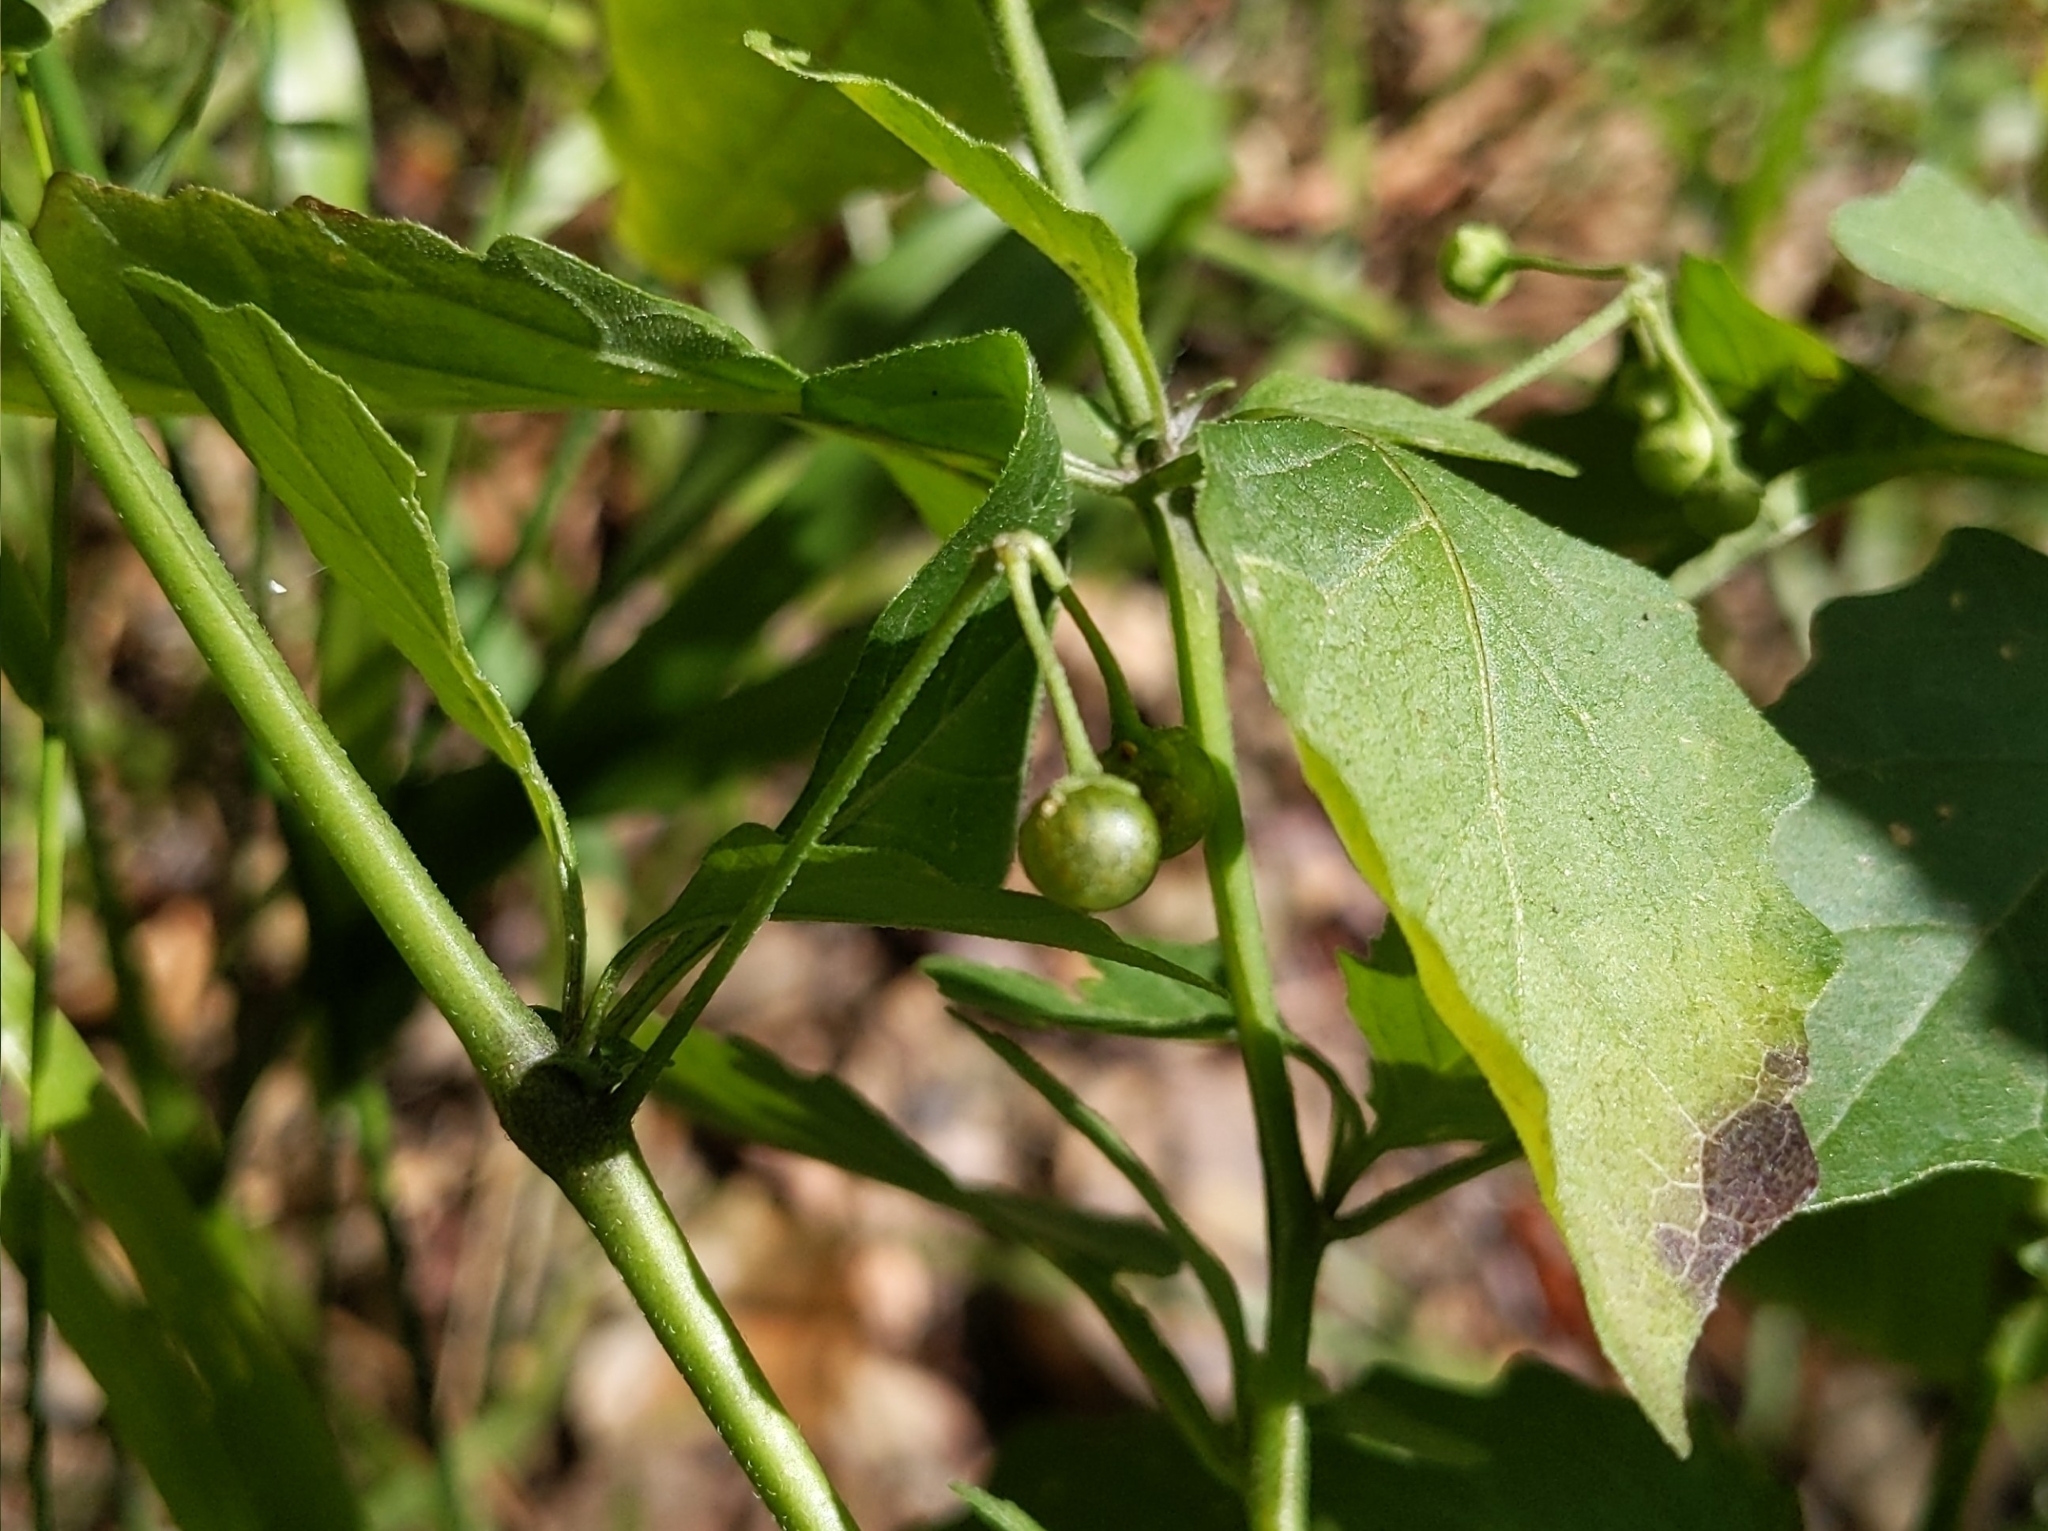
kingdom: Plantae
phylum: Tracheophyta
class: Magnoliopsida
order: Solanales
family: Solanaceae
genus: Solanum
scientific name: Solanum douglasii
